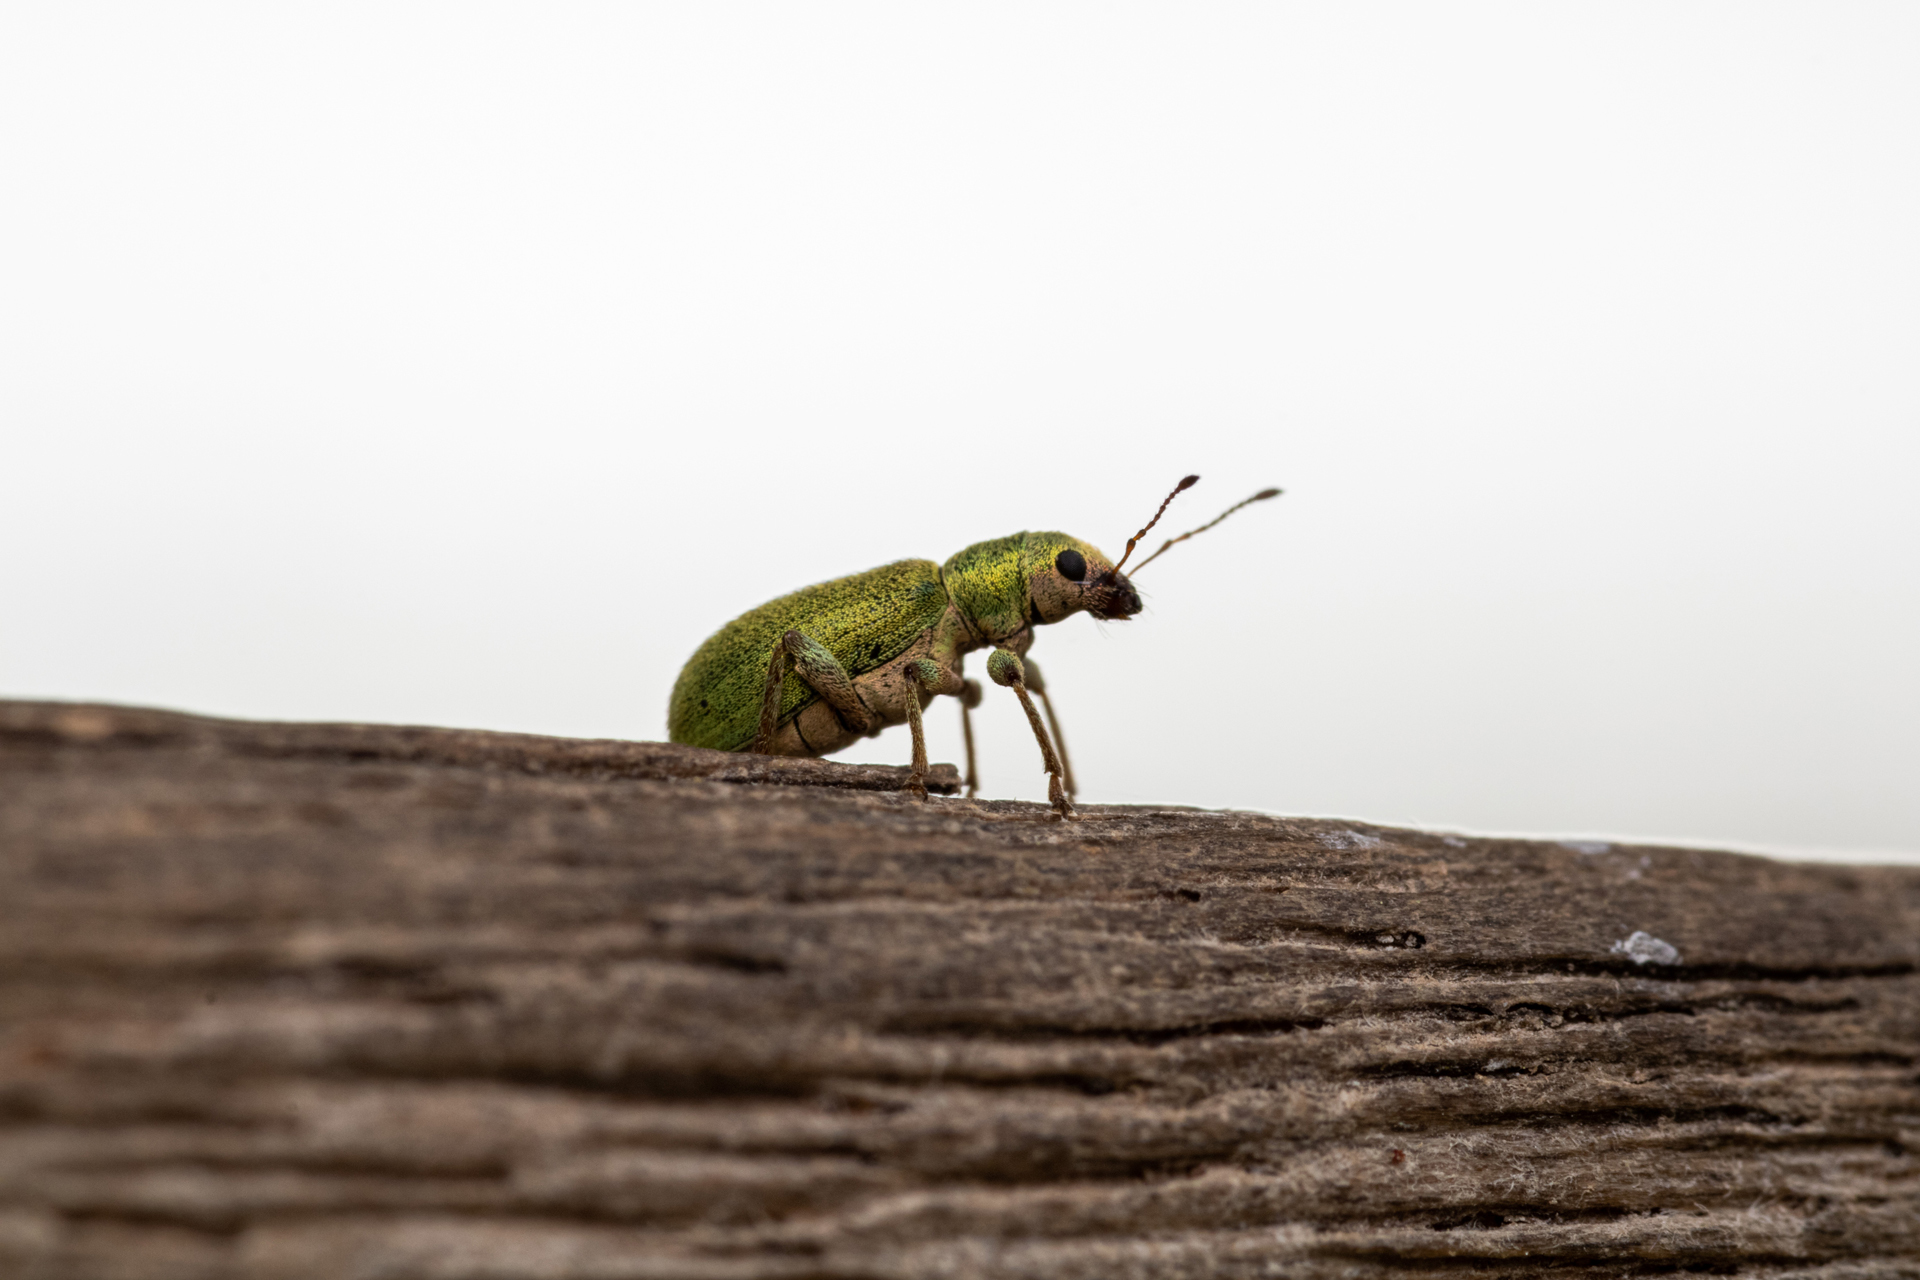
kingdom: Animalia
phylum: Arthropoda
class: Insecta
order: Coleoptera
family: Curculionidae
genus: Pachyrhinus
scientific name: Pachyrhinus lethierryi
